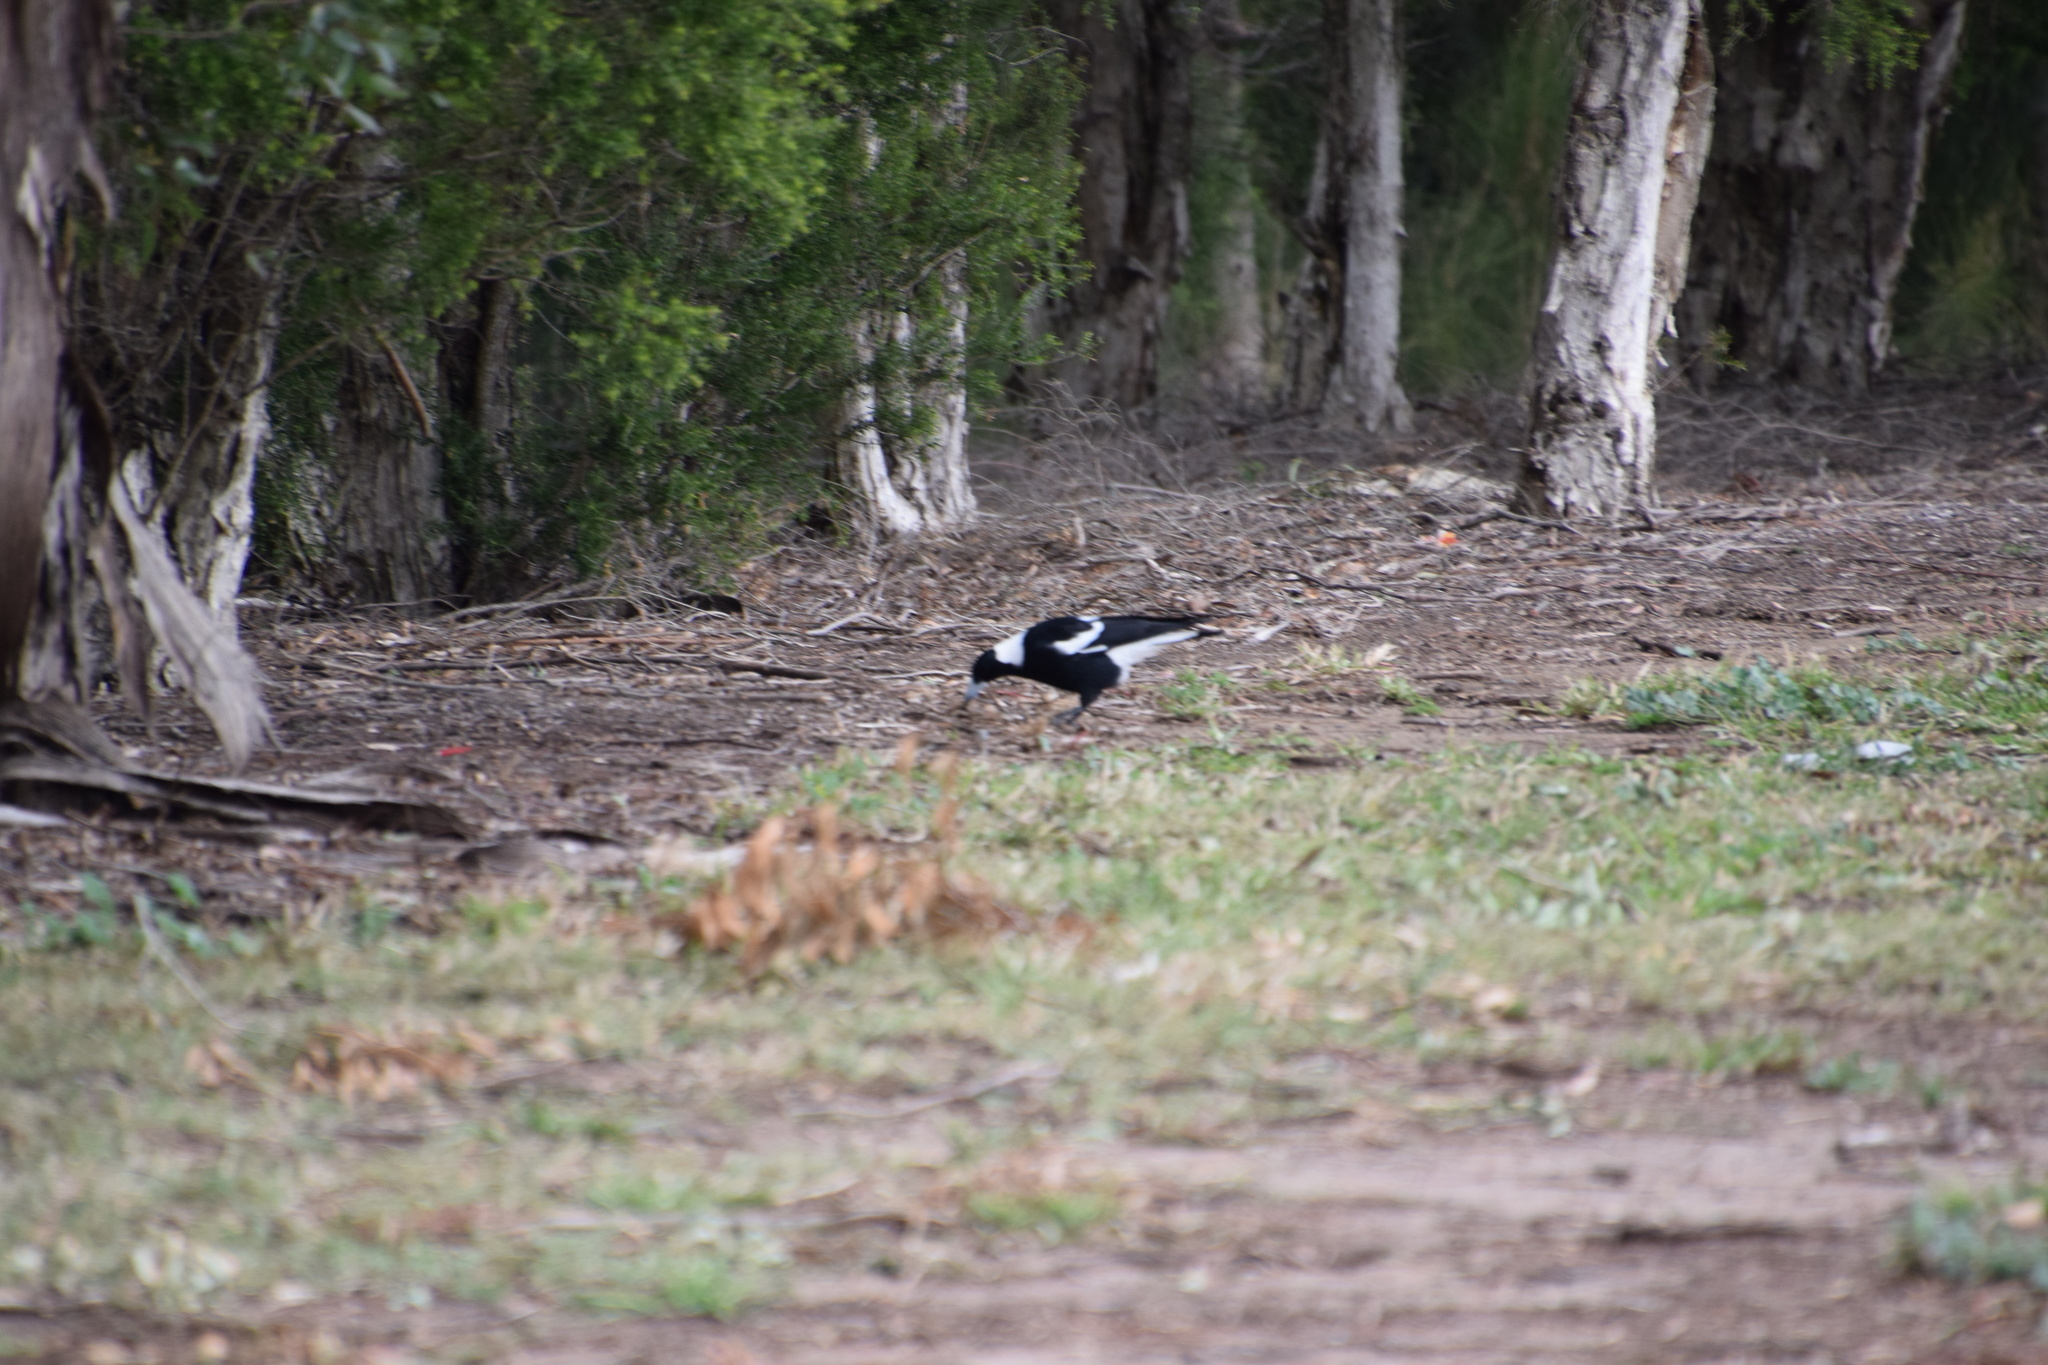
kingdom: Animalia
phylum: Chordata
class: Aves
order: Passeriformes
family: Cracticidae
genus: Gymnorhina
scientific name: Gymnorhina tibicen
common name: Australian magpie
